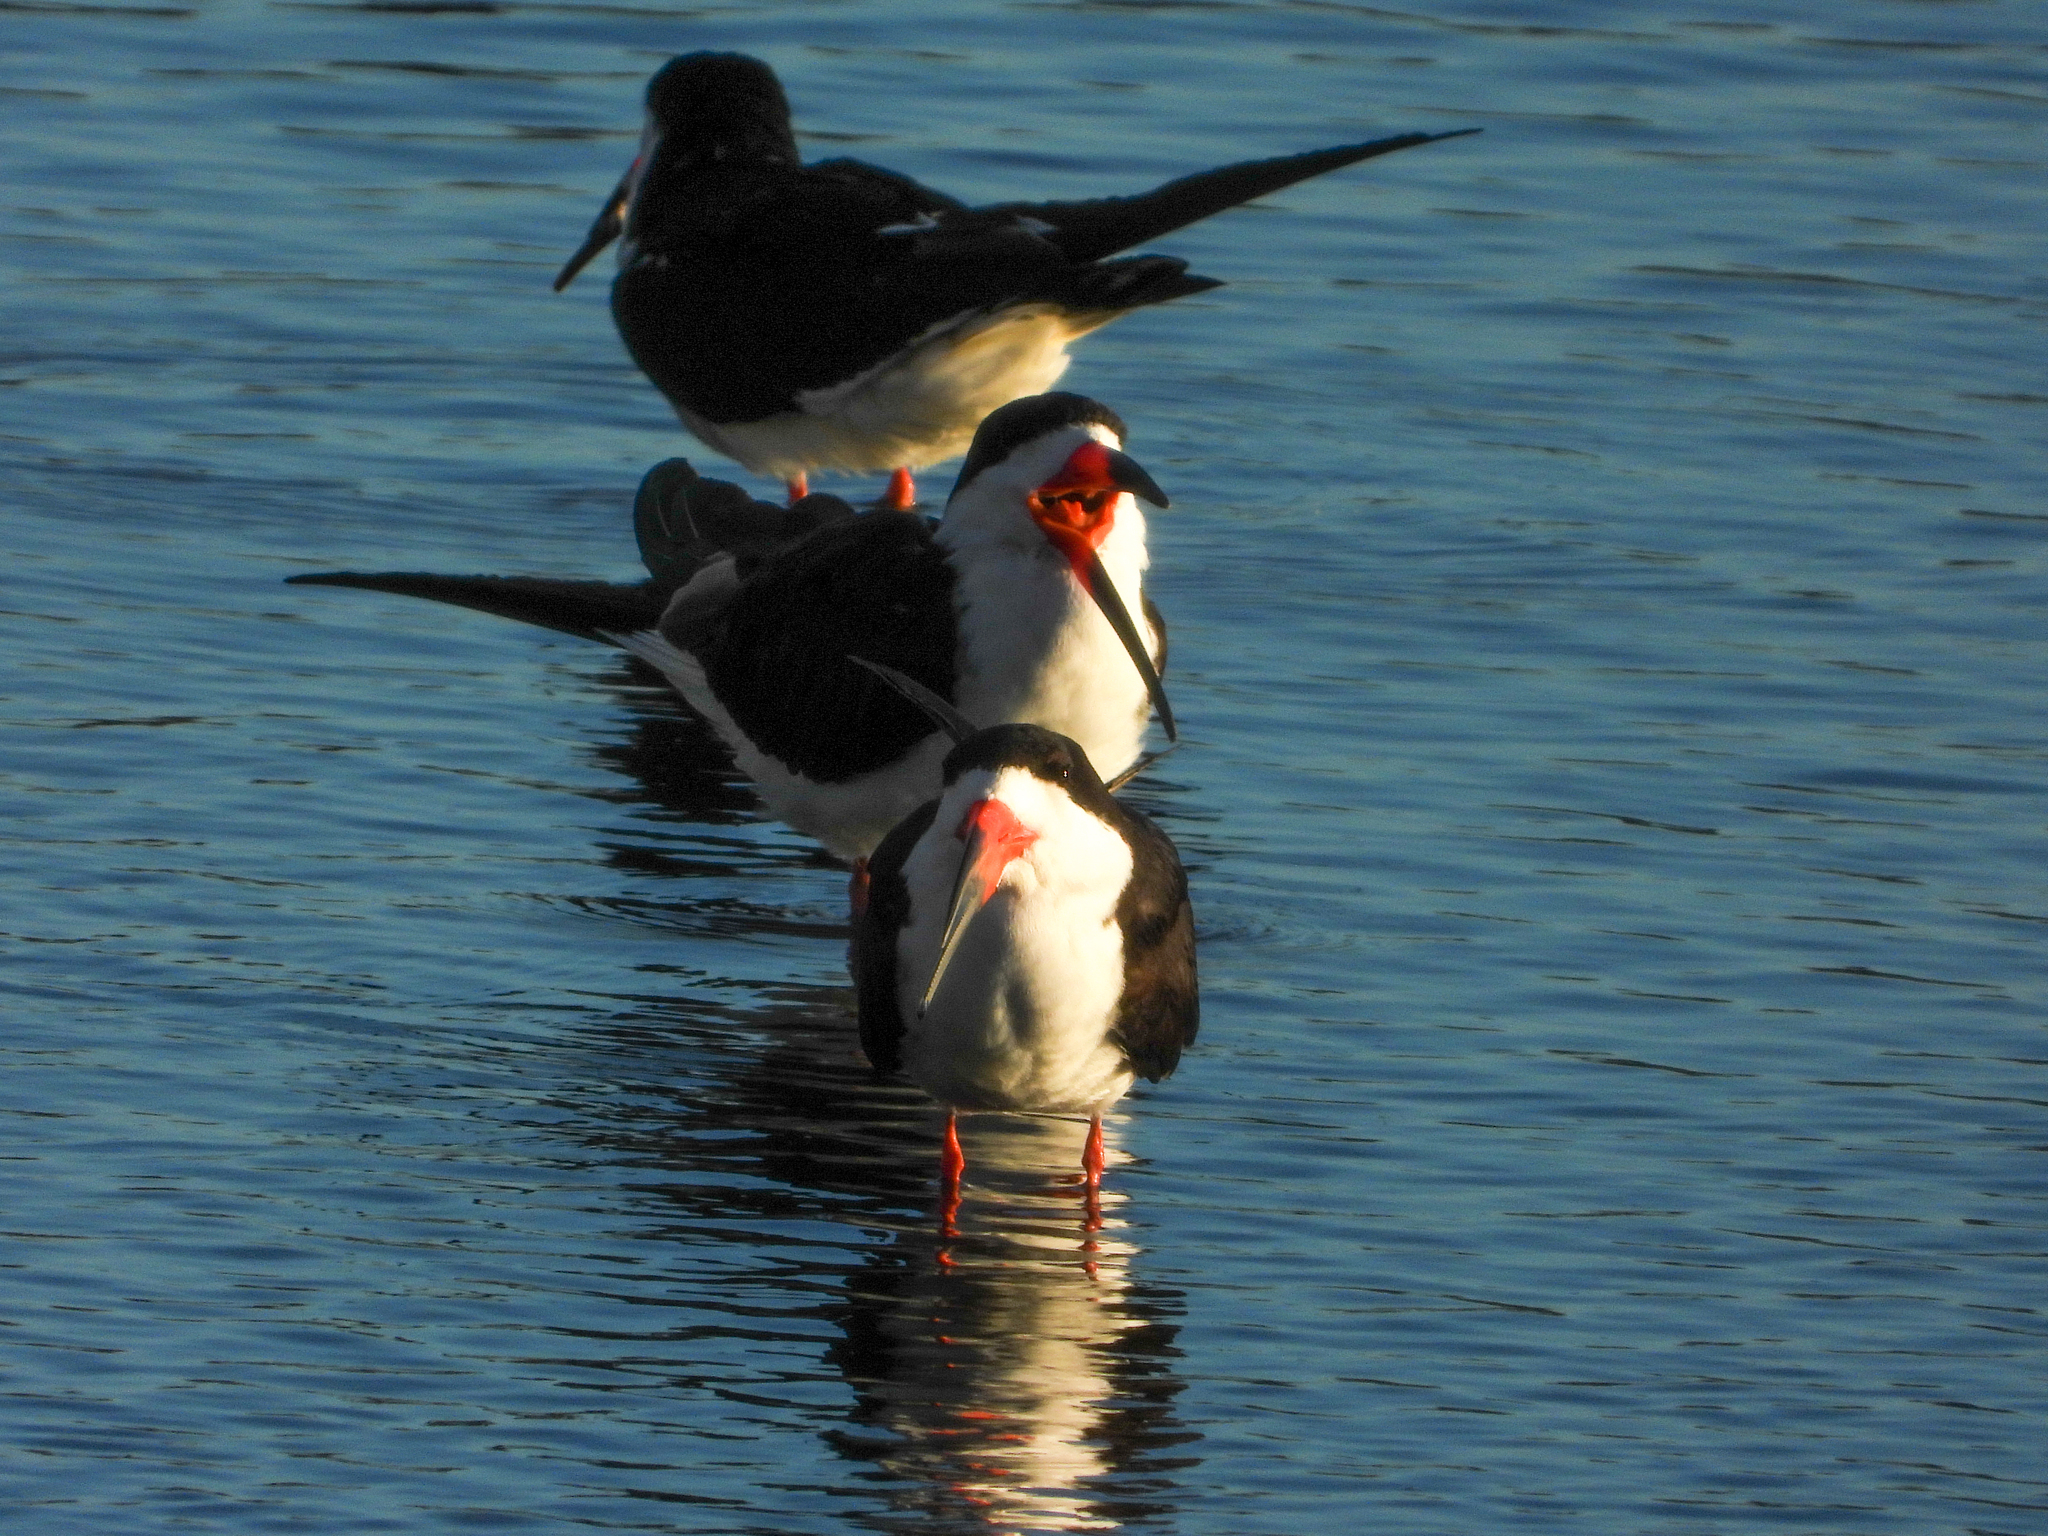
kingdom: Animalia
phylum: Chordata
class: Aves
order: Charadriiformes
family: Laridae
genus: Rynchops
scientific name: Rynchops niger
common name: Black skimmer
